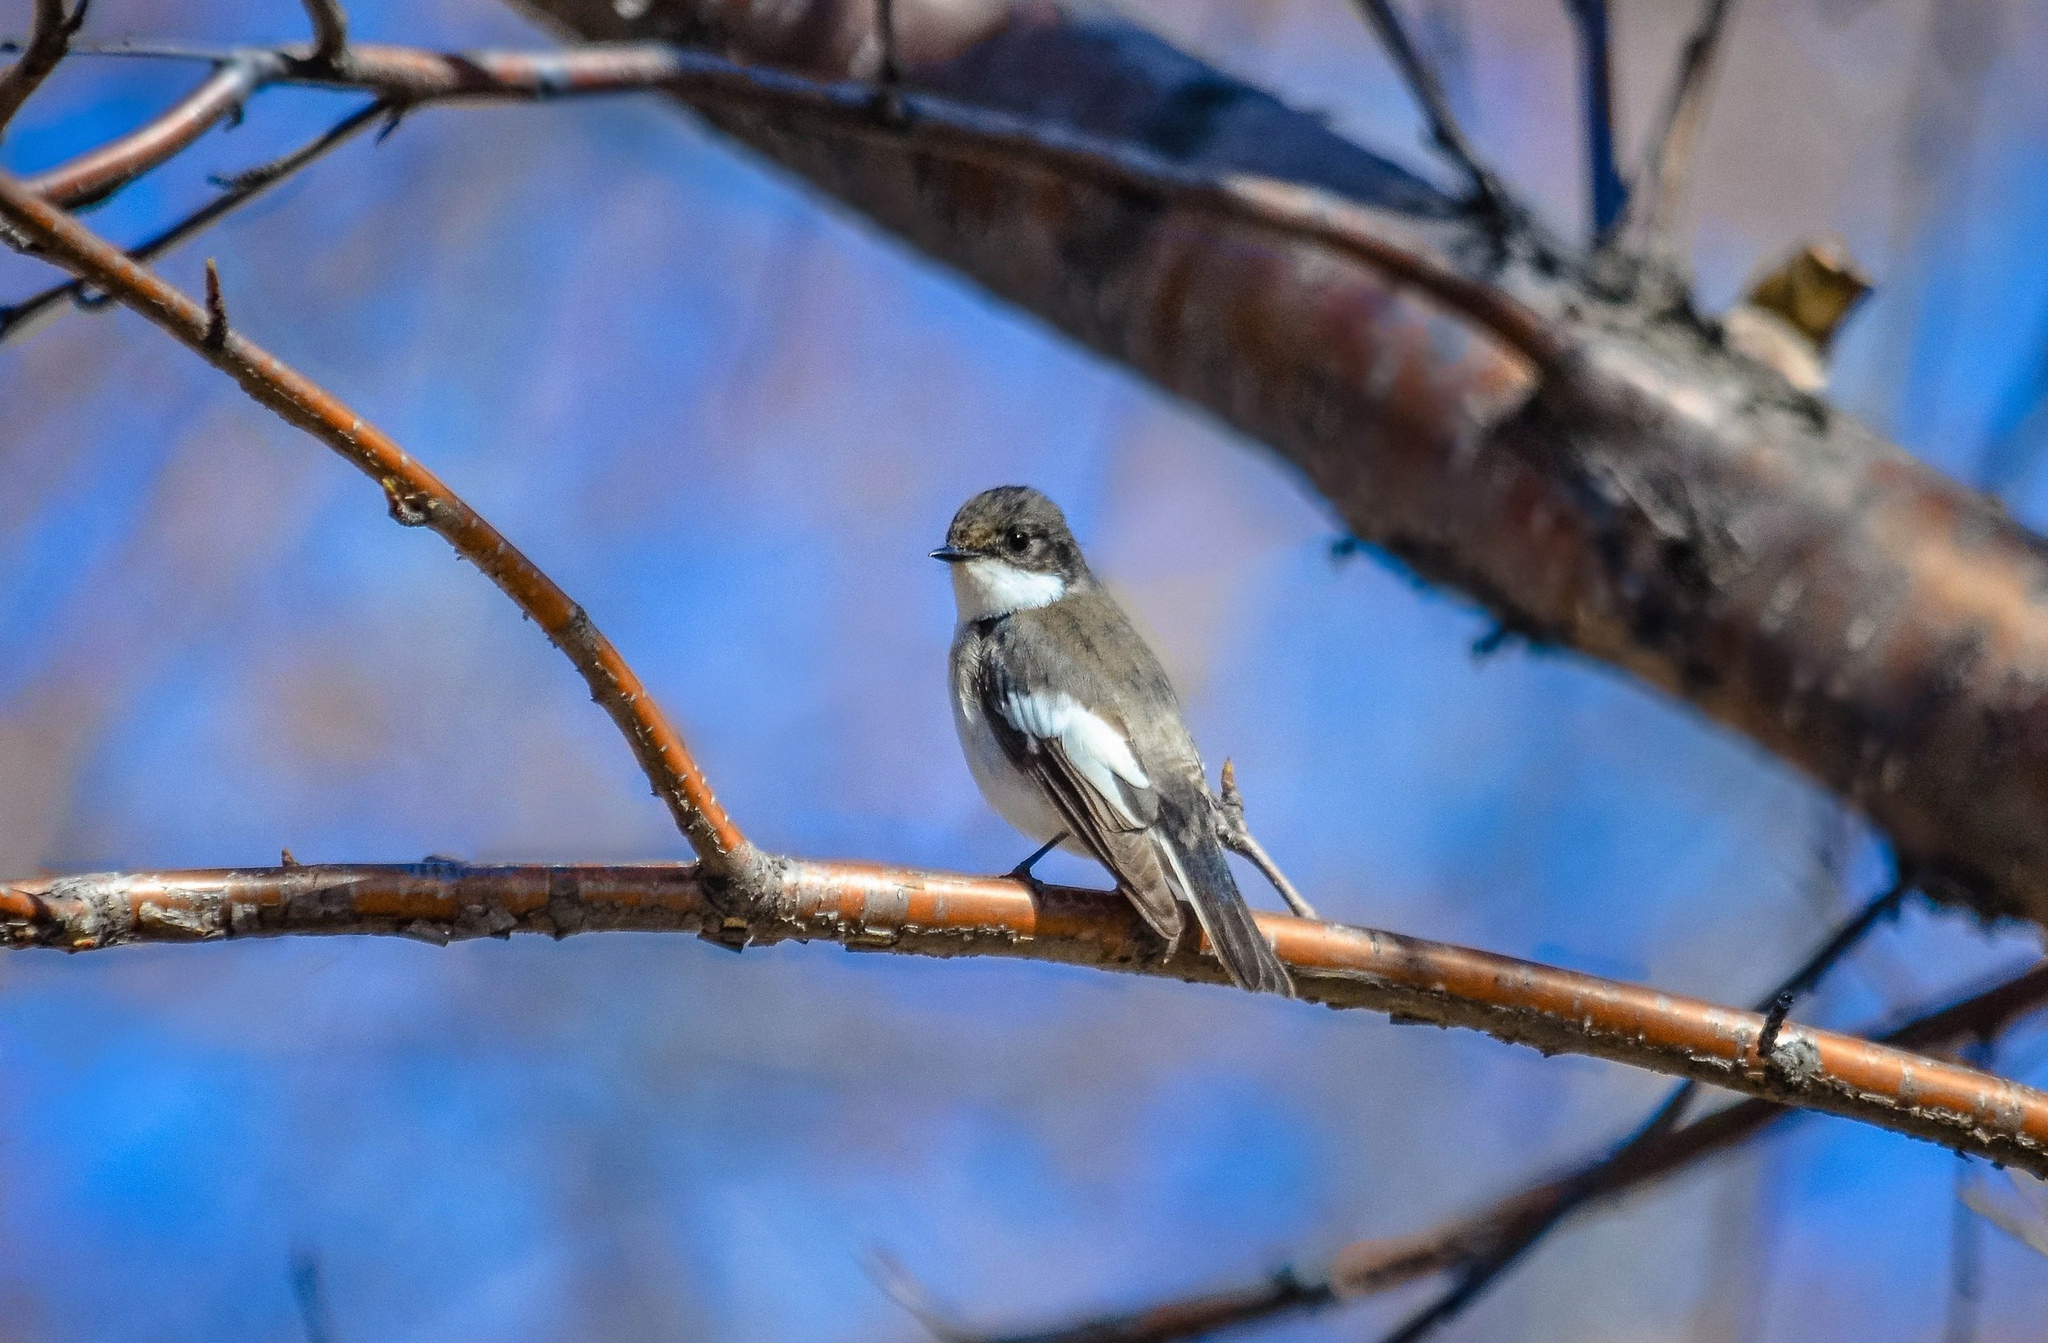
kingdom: Animalia
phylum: Chordata
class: Aves
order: Passeriformes
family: Muscicapidae
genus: Ficedula
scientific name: Ficedula hypoleuca
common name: European pied flycatcher
